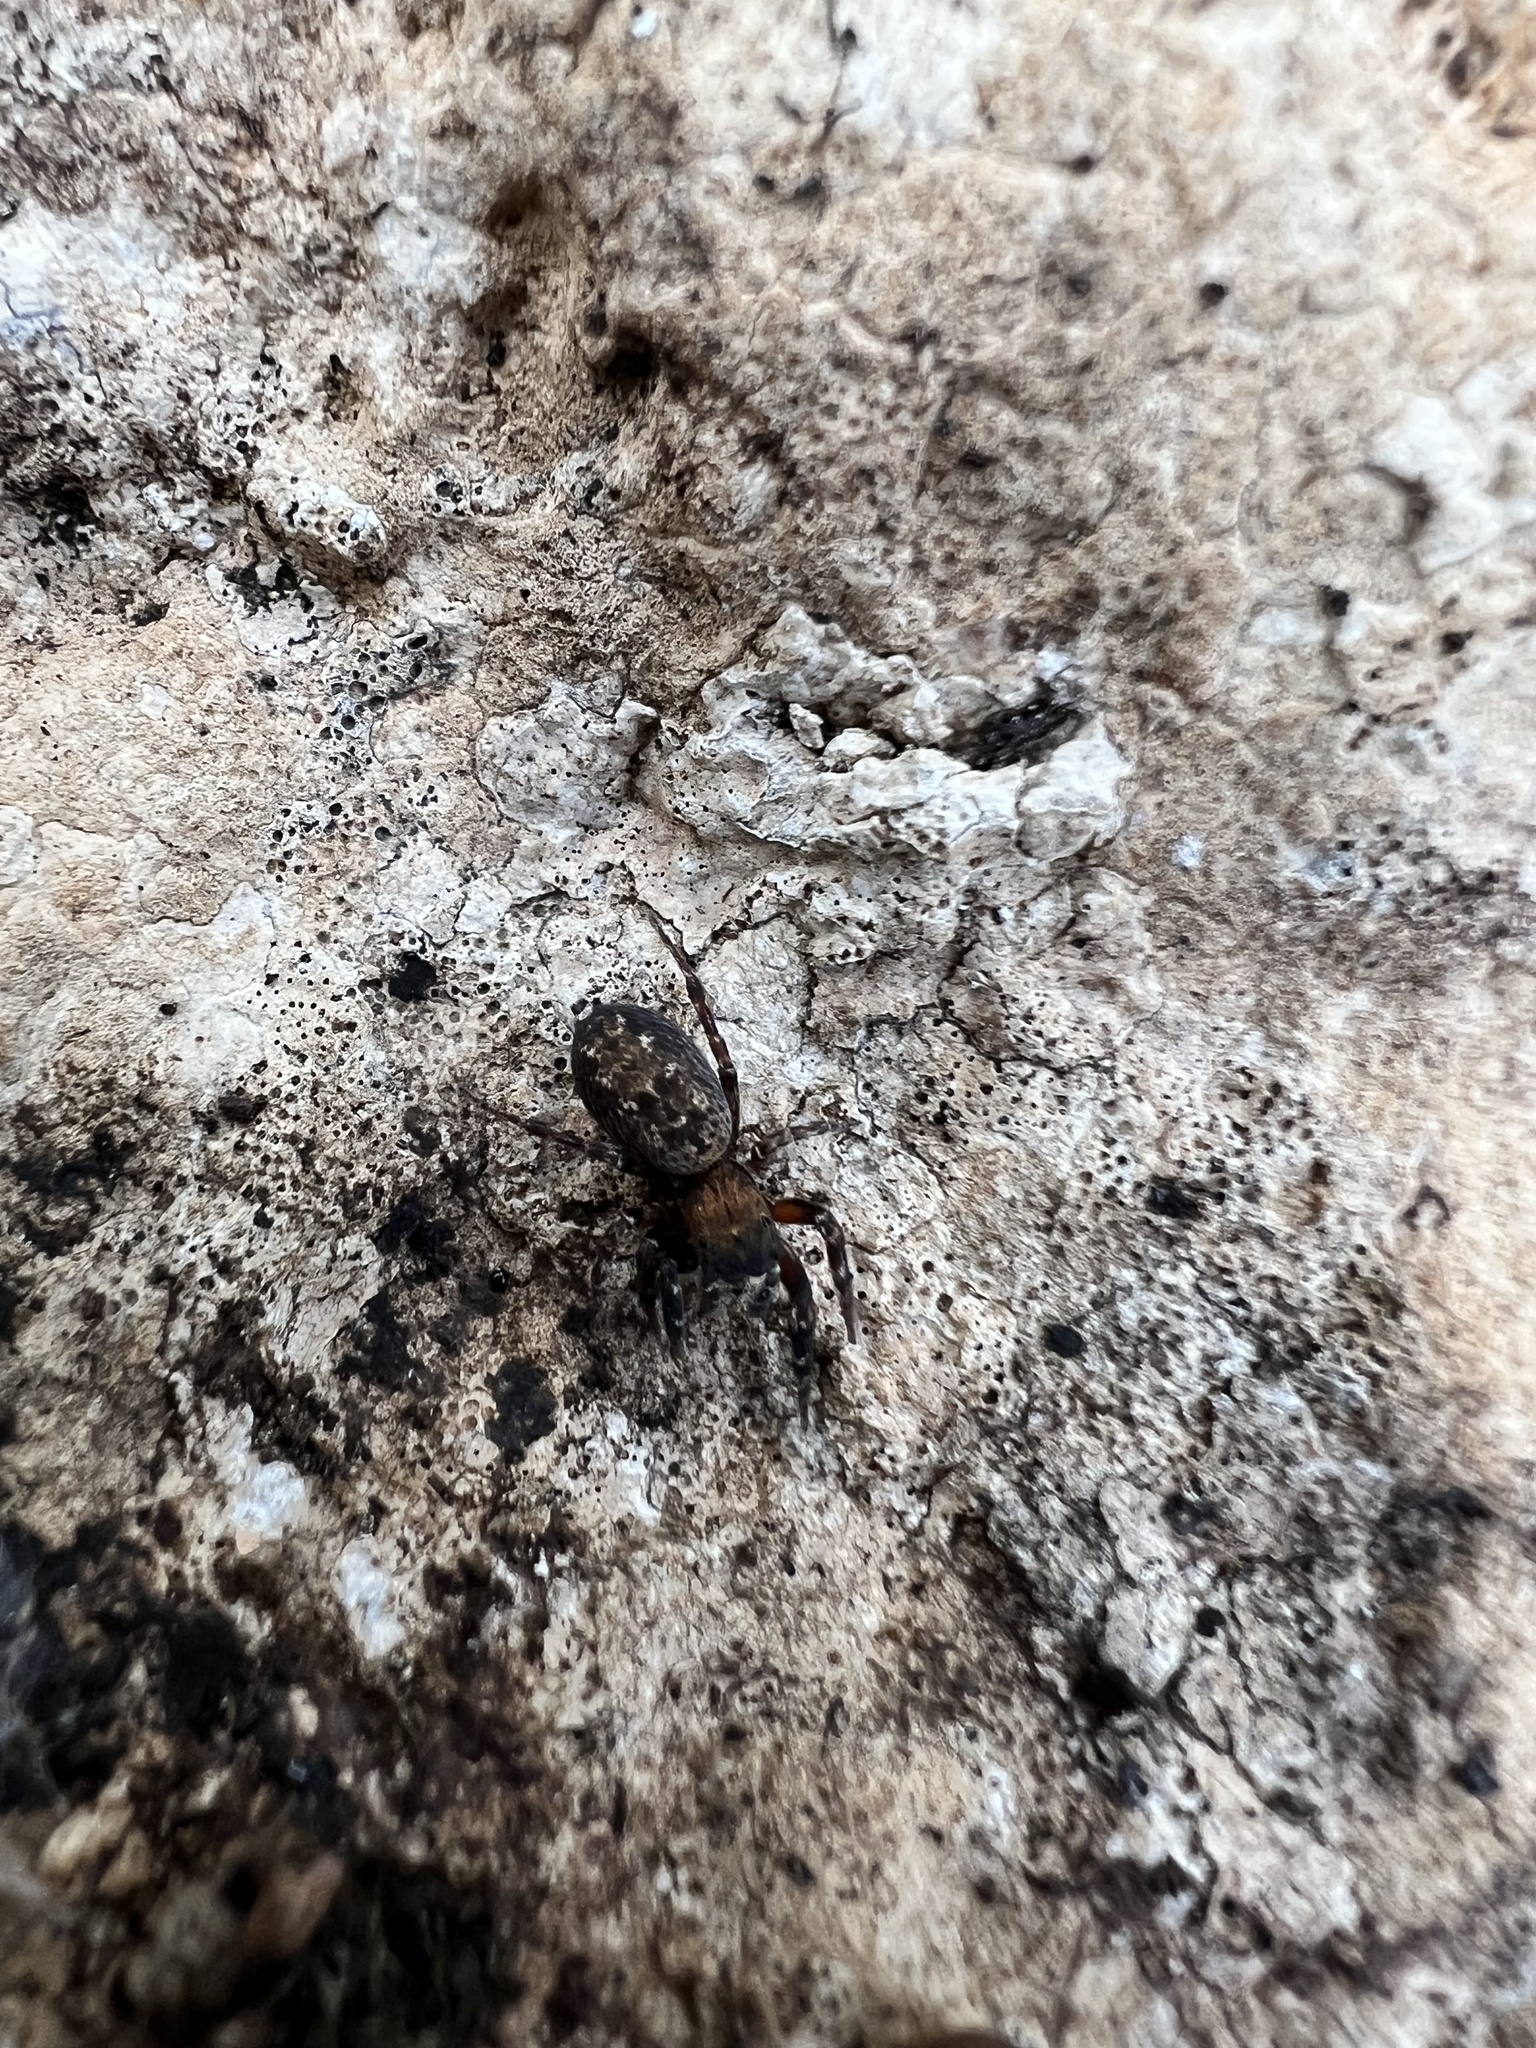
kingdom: Animalia
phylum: Arthropoda
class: Arachnida
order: Araneae
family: Salticidae
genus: Cyrba
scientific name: Cyrba algerina
